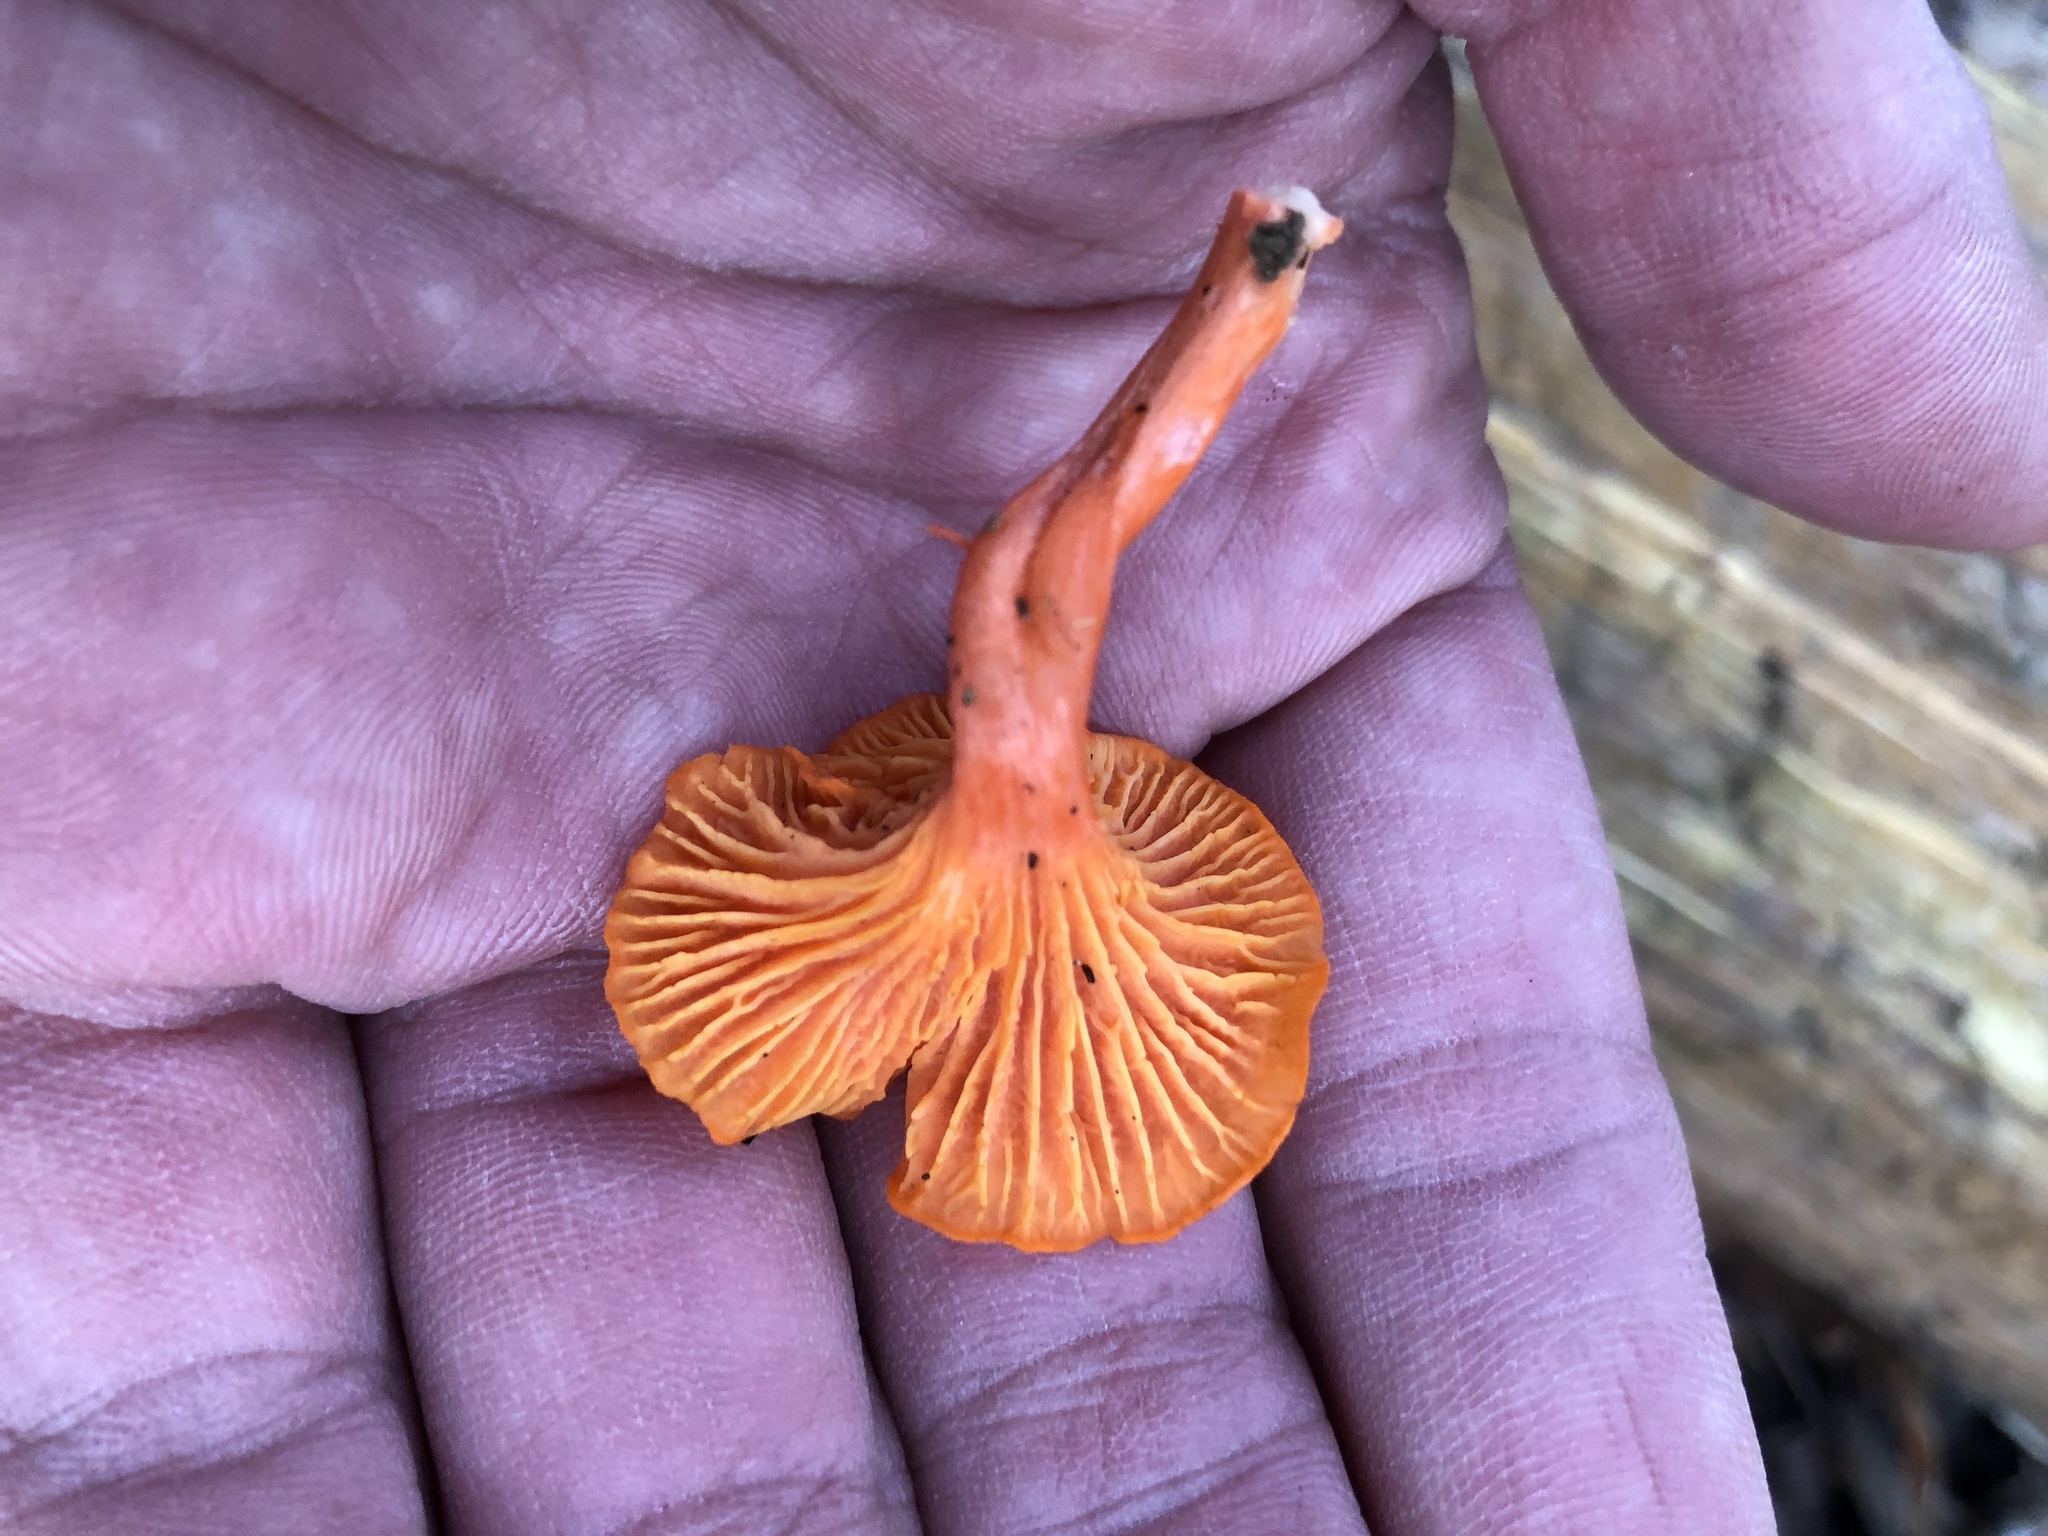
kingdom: Fungi
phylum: Basidiomycota
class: Agaricomycetes
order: Cantharellales
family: Hydnaceae
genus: Cantharellus
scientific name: Cantharellus cinnabarinus
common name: Cinnabar chanterelle
